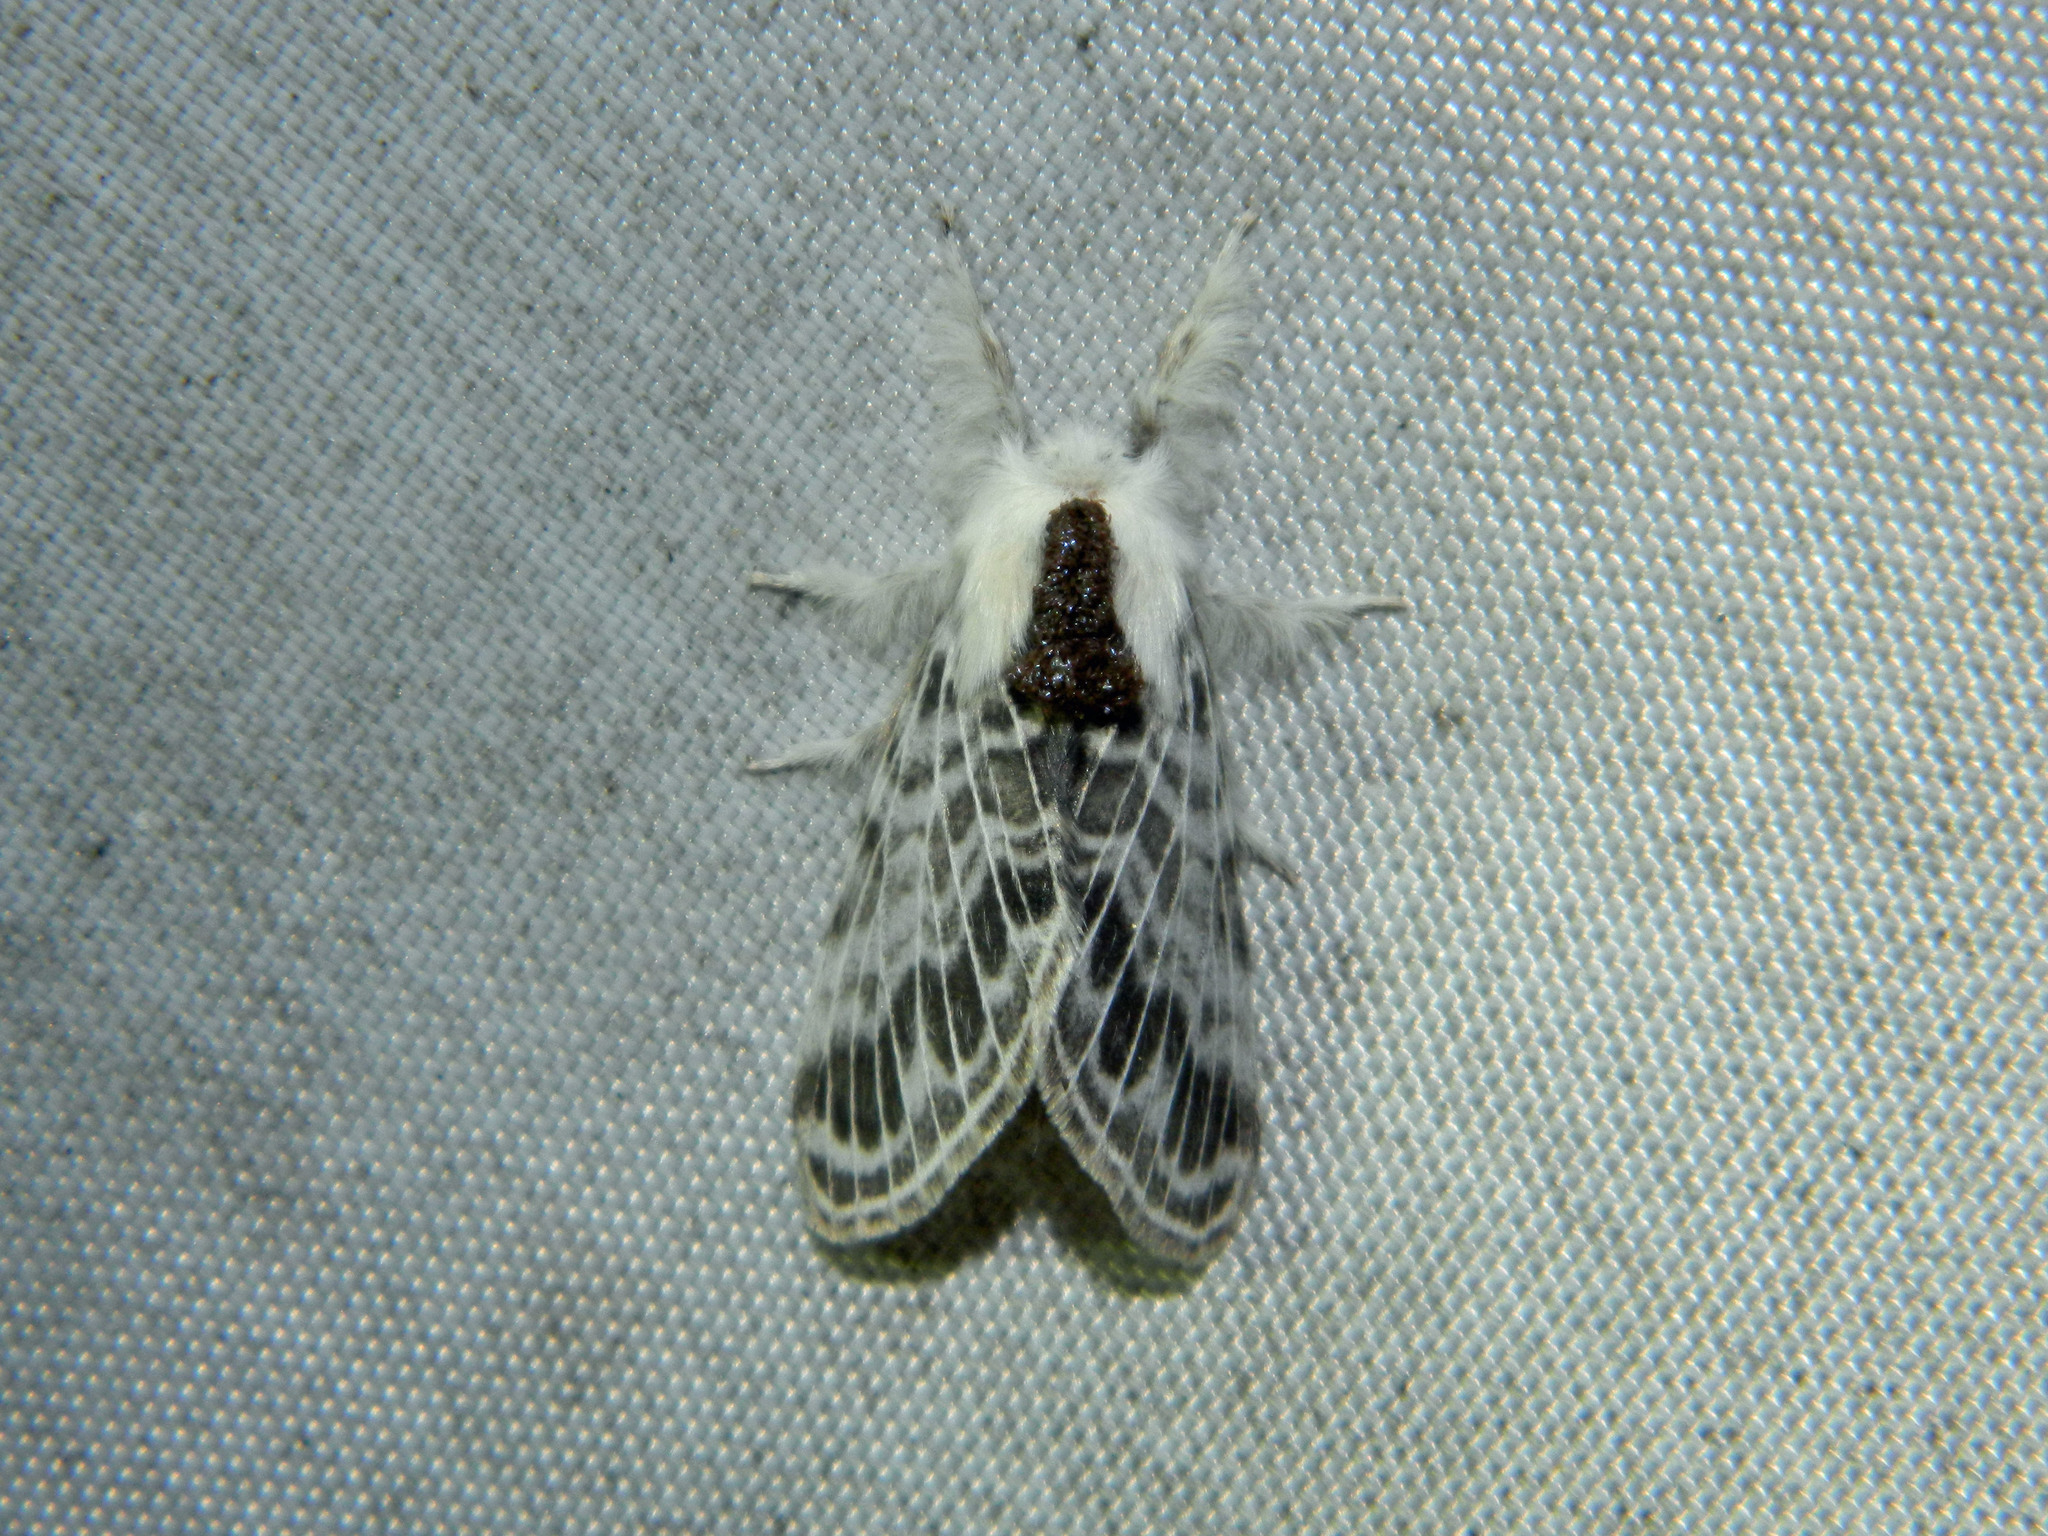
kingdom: Animalia
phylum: Arthropoda
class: Insecta
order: Lepidoptera
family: Lasiocampidae
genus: Tolype
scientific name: Tolype laricis
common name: Larch tolype moth
